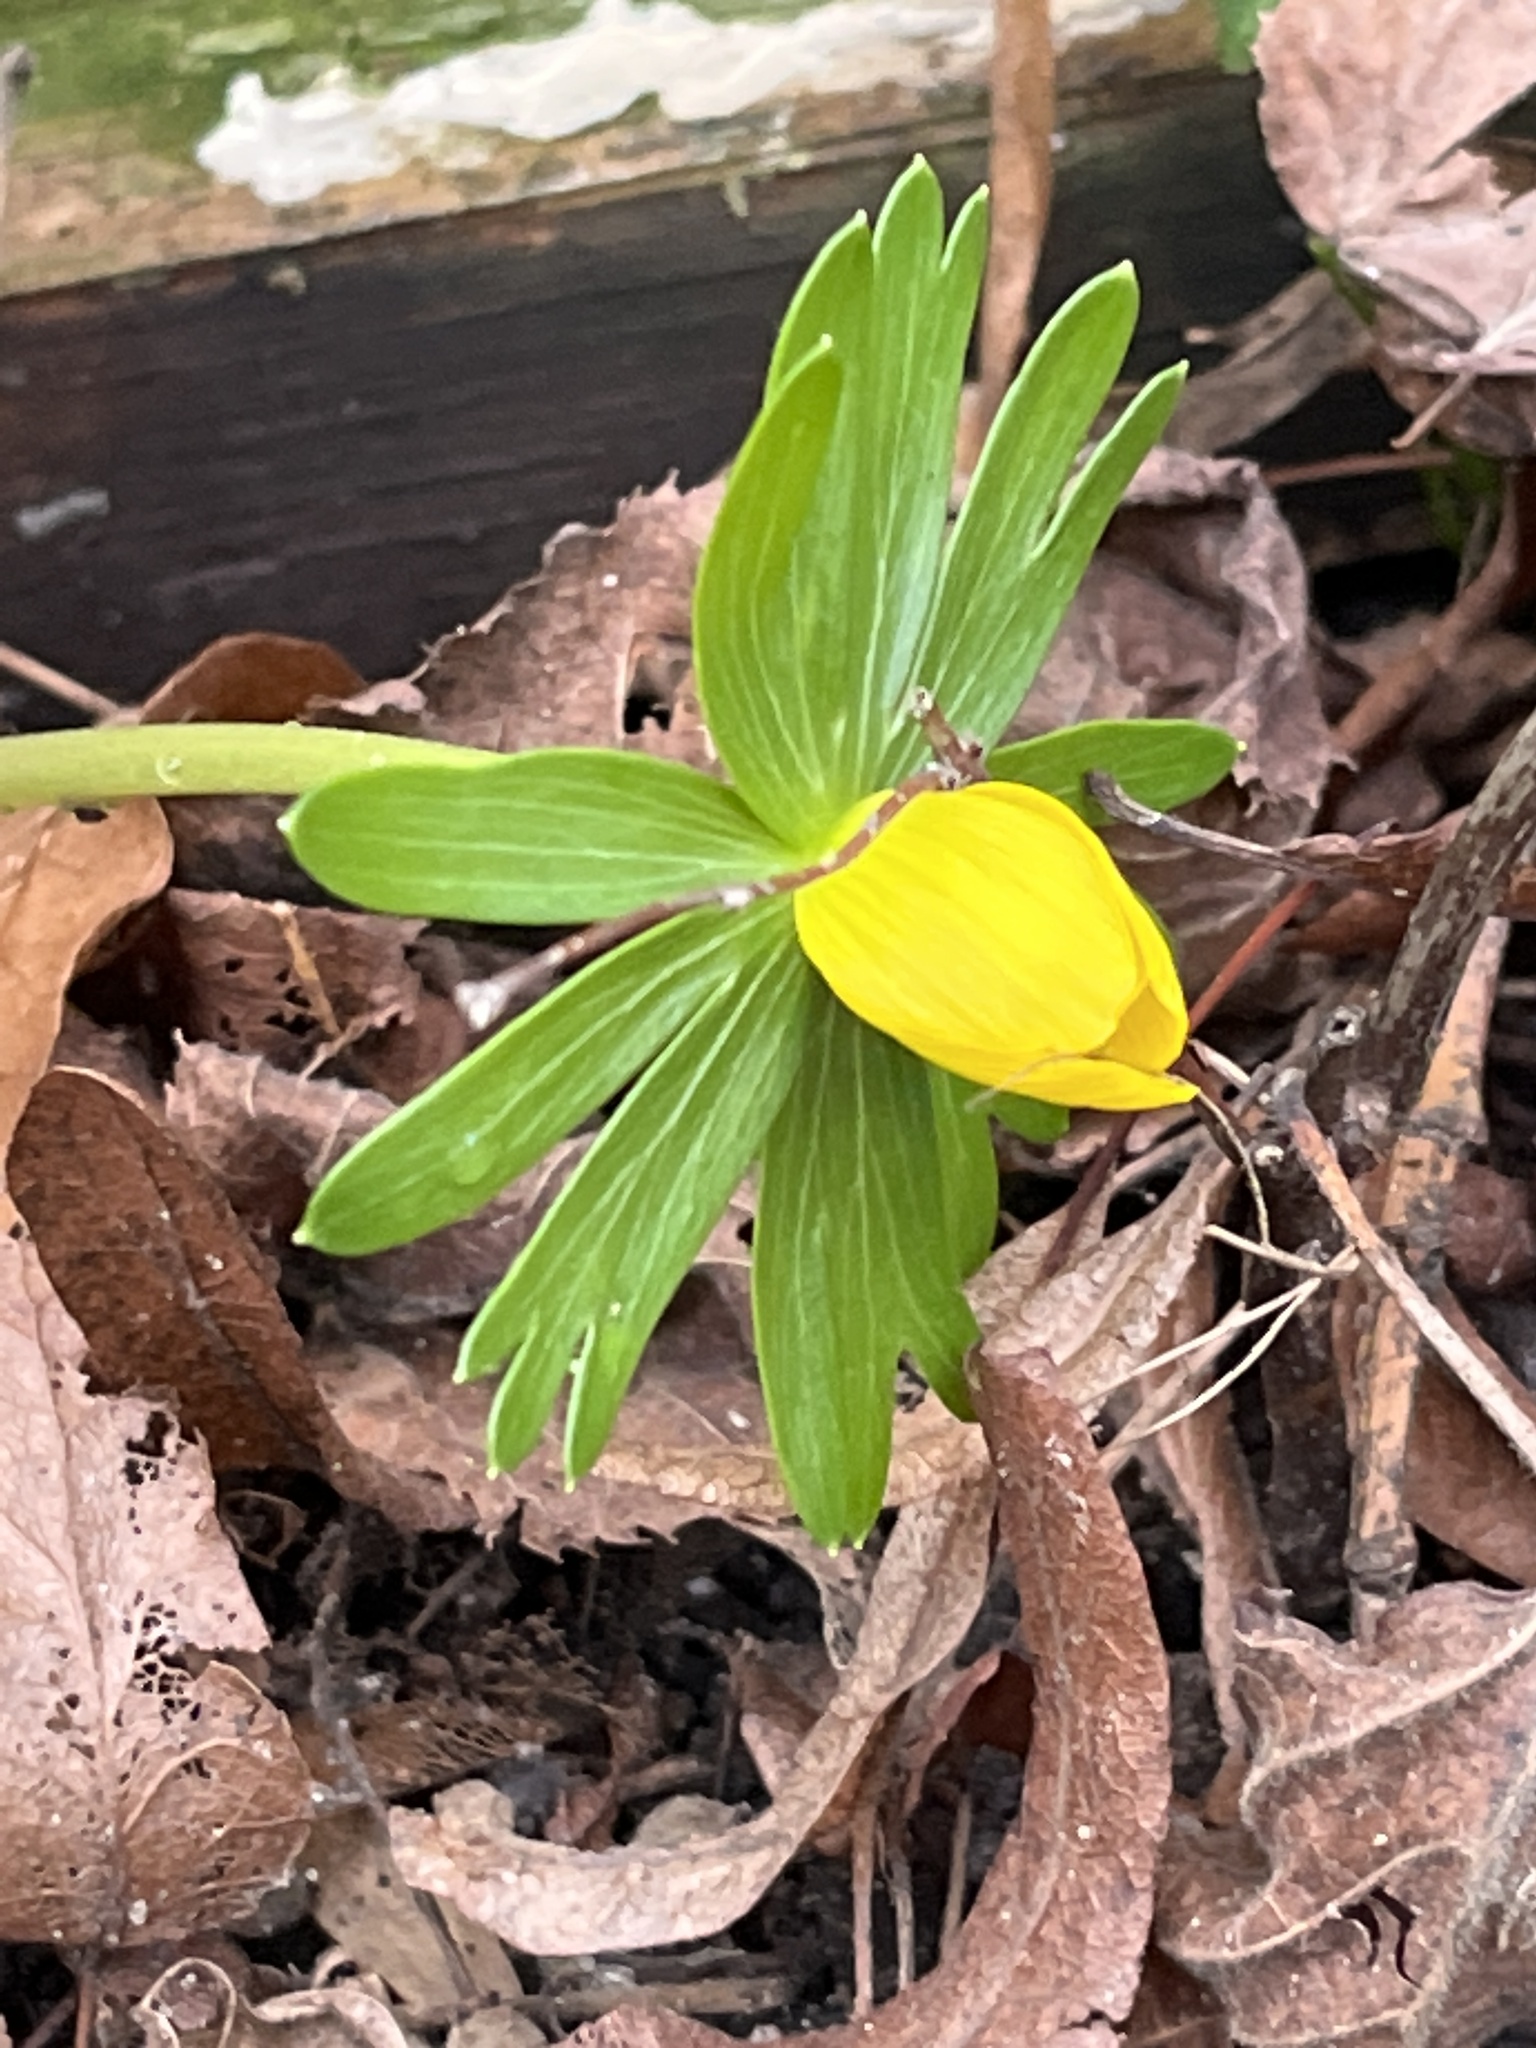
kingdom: Plantae
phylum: Tracheophyta
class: Magnoliopsida
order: Ranunculales
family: Ranunculaceae
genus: Eranthis
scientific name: Eranthis hyemalis
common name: Winter aconite
